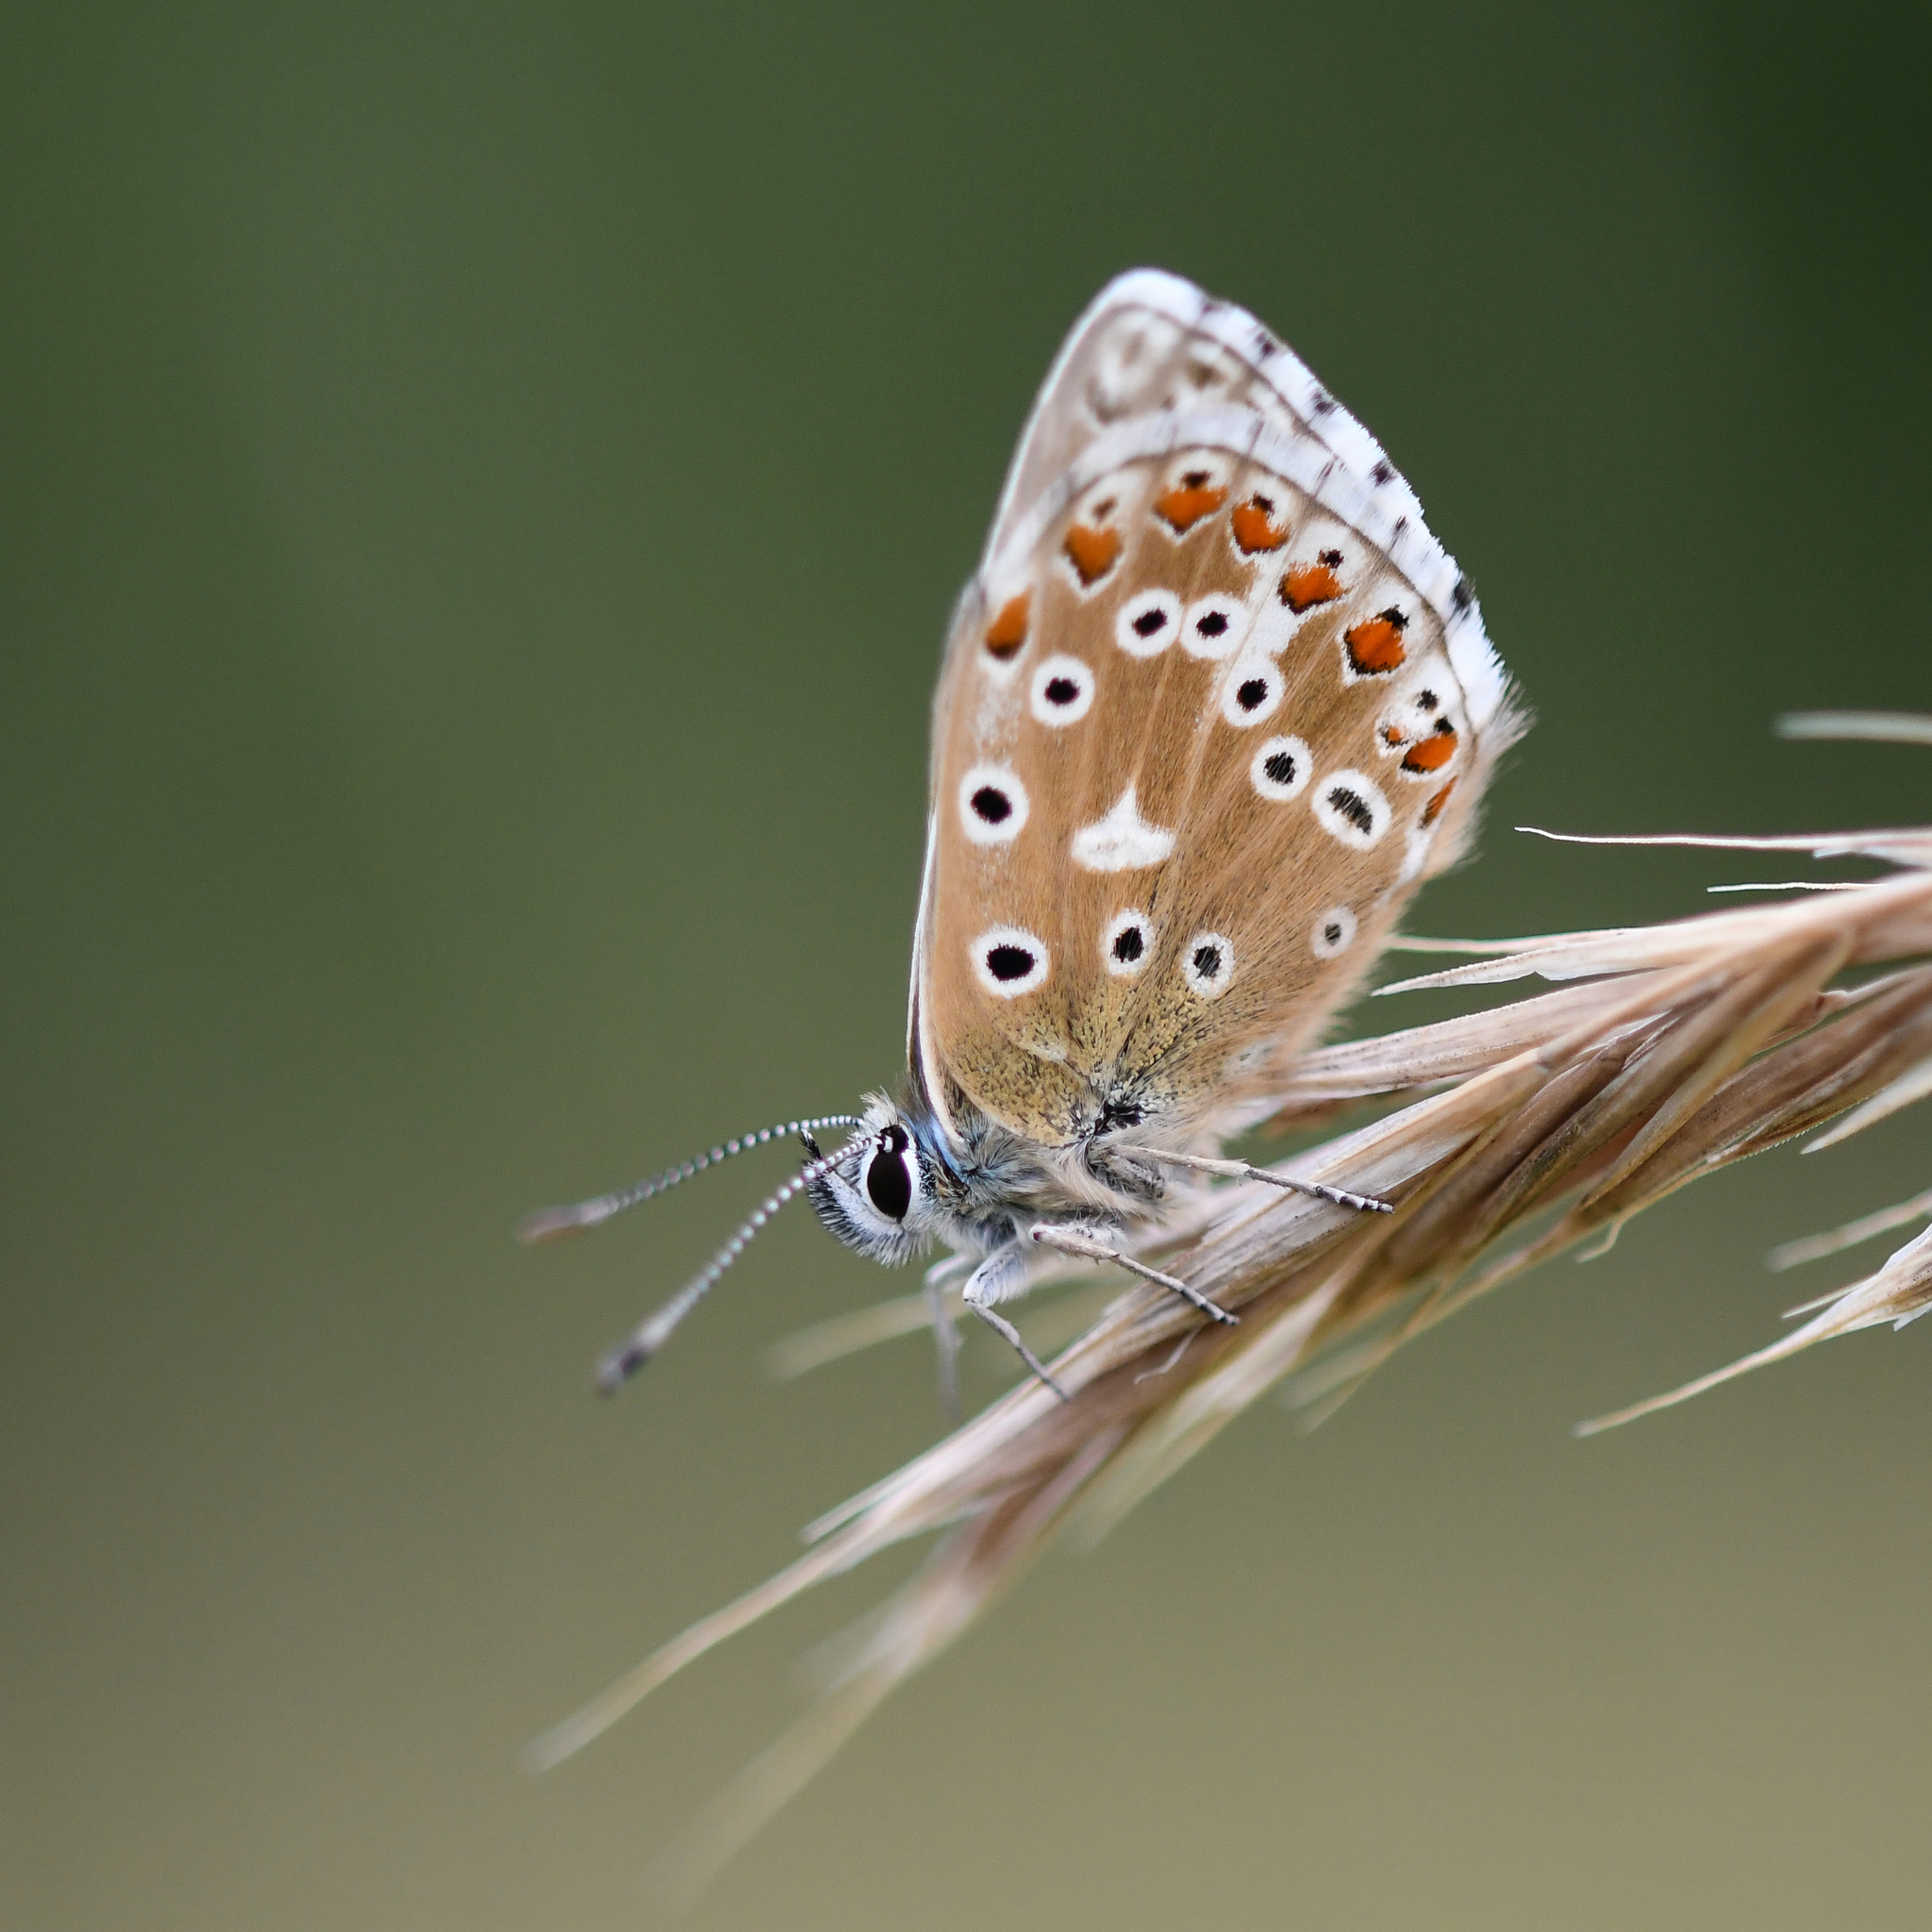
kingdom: Animalia
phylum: Arthropoda
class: Insecta
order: Lepidoptera
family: Lycaenidae
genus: Lysandra
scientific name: Lysandra bellargus
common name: Adonis blue
